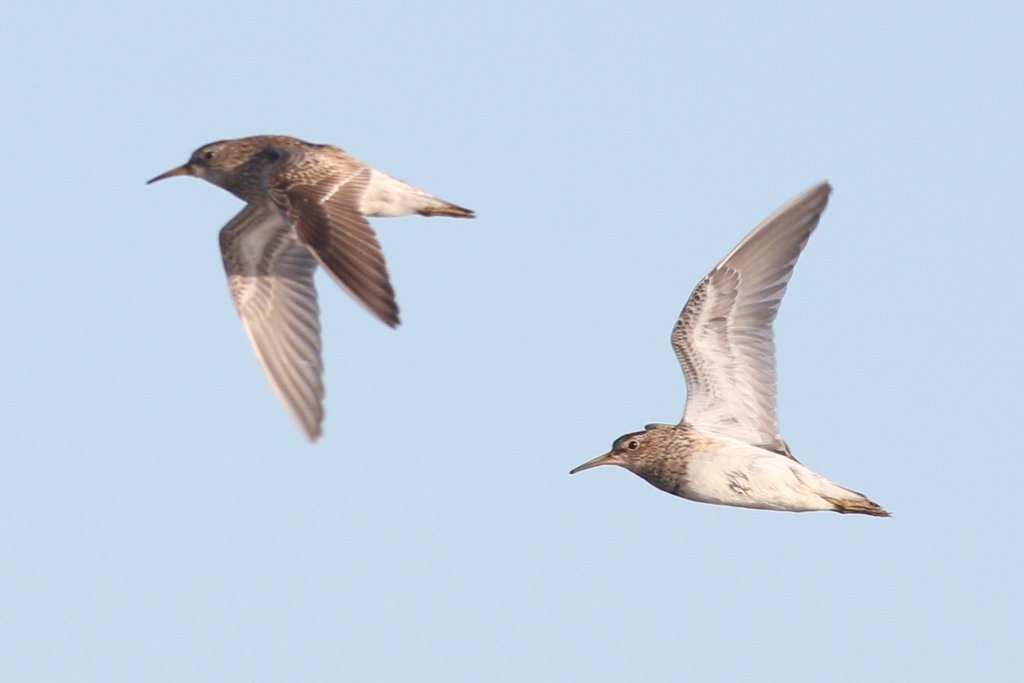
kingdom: Animalia
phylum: Chordata
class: Aves
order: Charadriiformes
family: Scolopacidae
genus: Calidris
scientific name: Calidris melanotos
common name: Pectoral sandpiper
